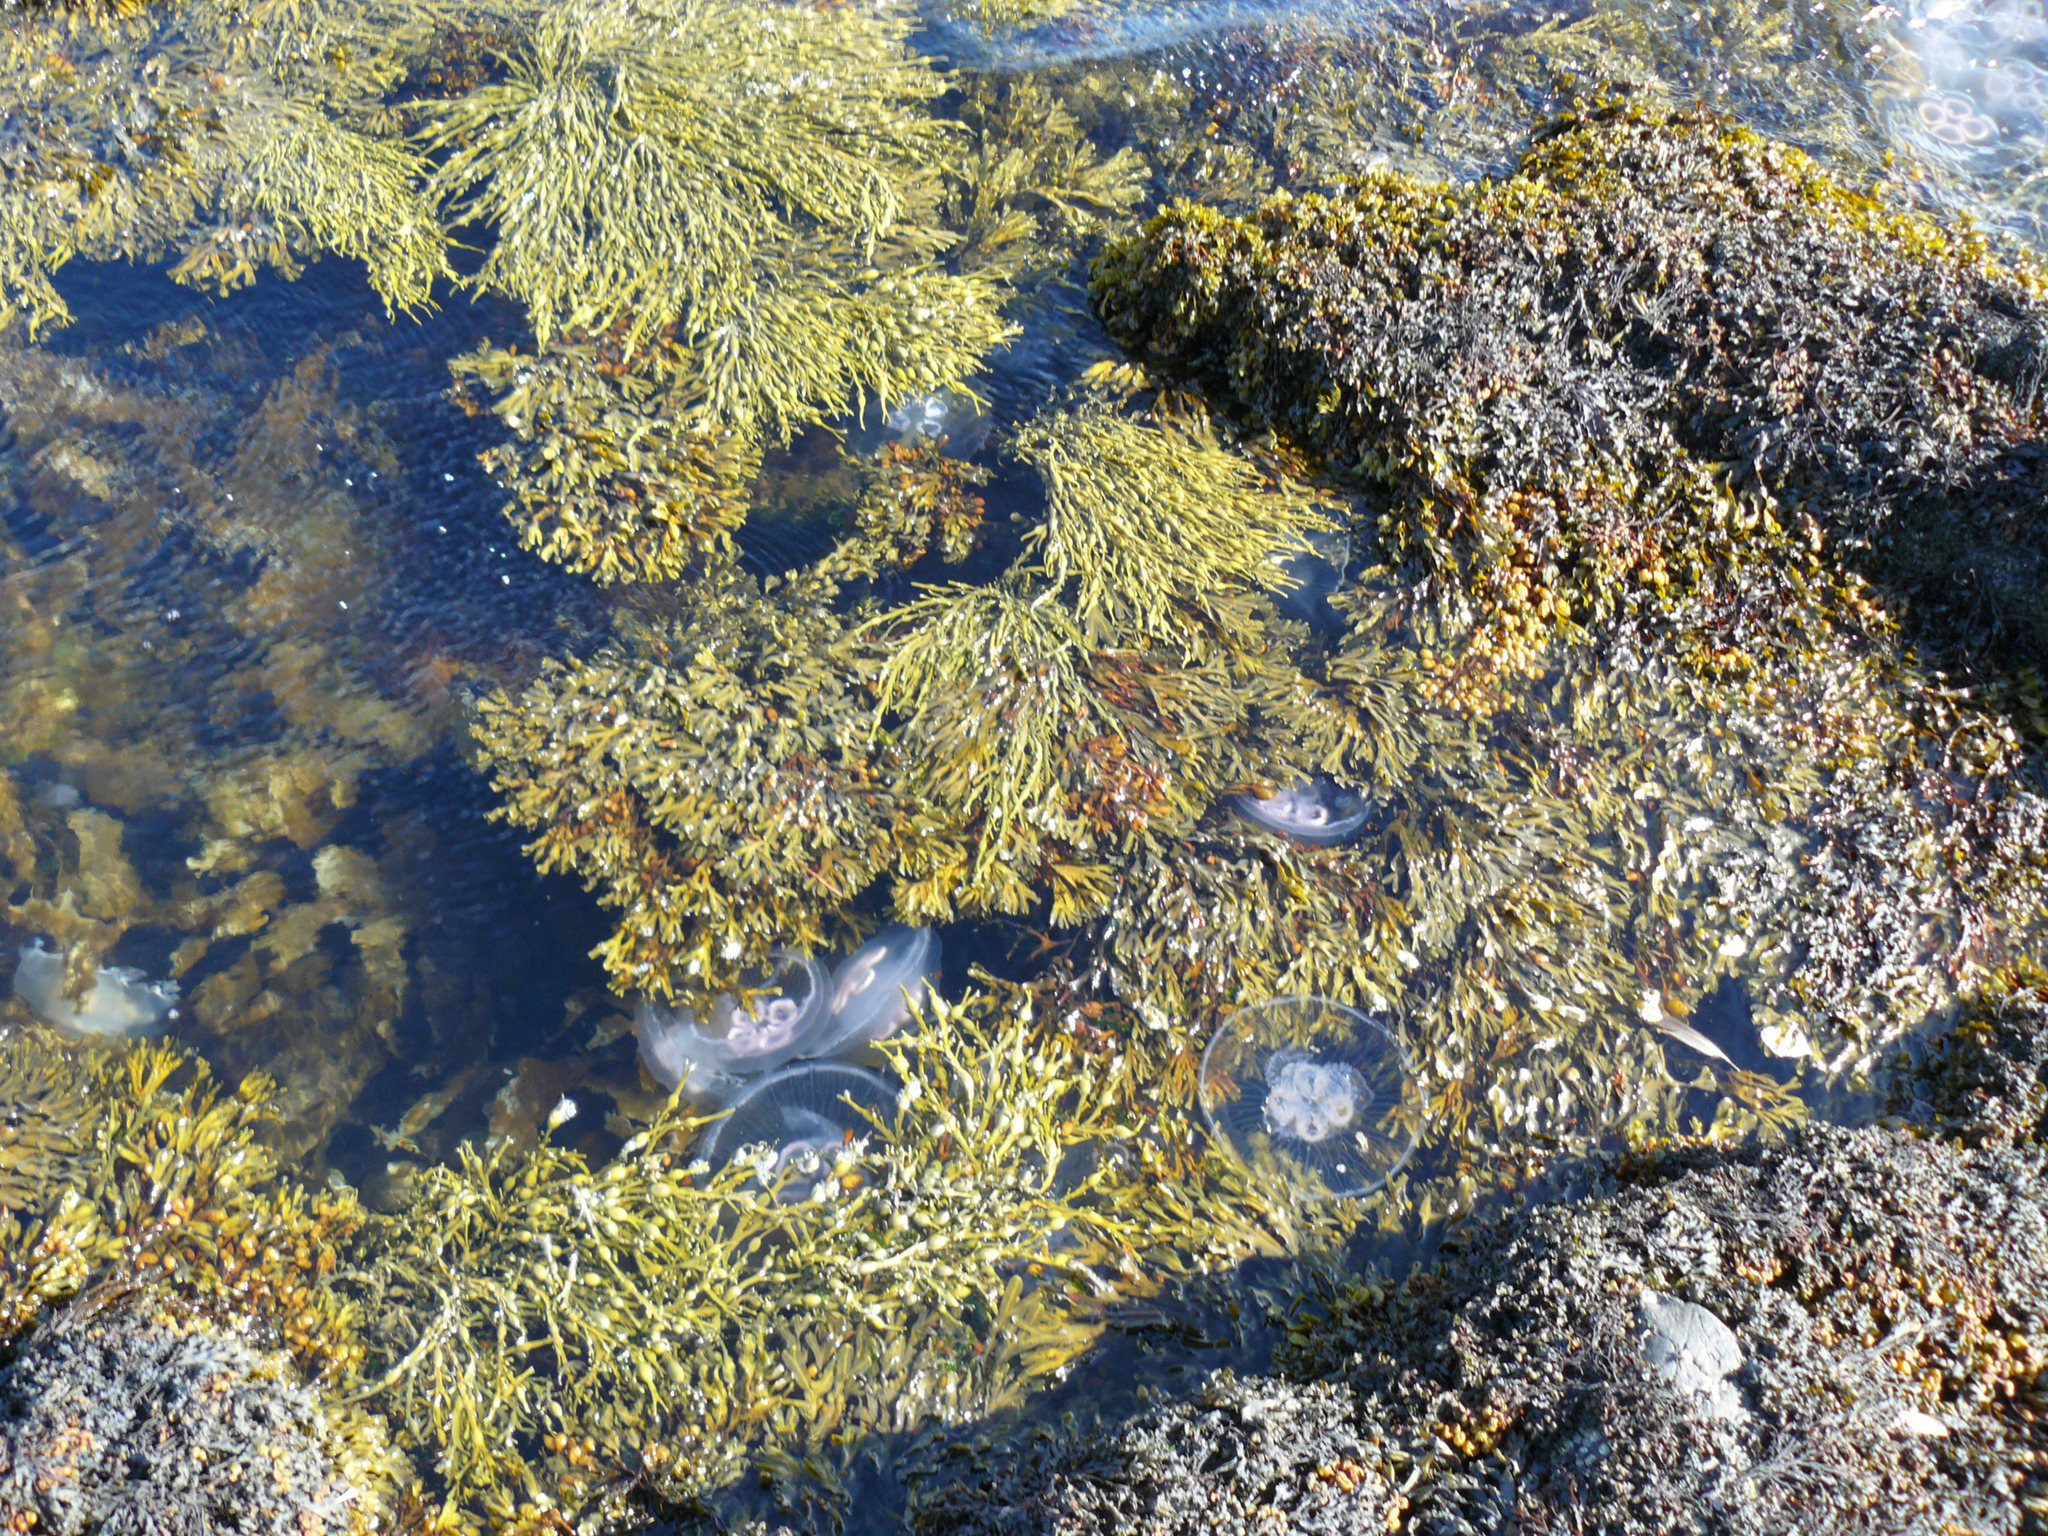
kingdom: Animalia
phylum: Cnidaria
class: Scyphozoa
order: Semaeostomeae
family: Ulmaridae
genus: Aurelia
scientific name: Aurelia aurita
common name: Moon jellyfish
